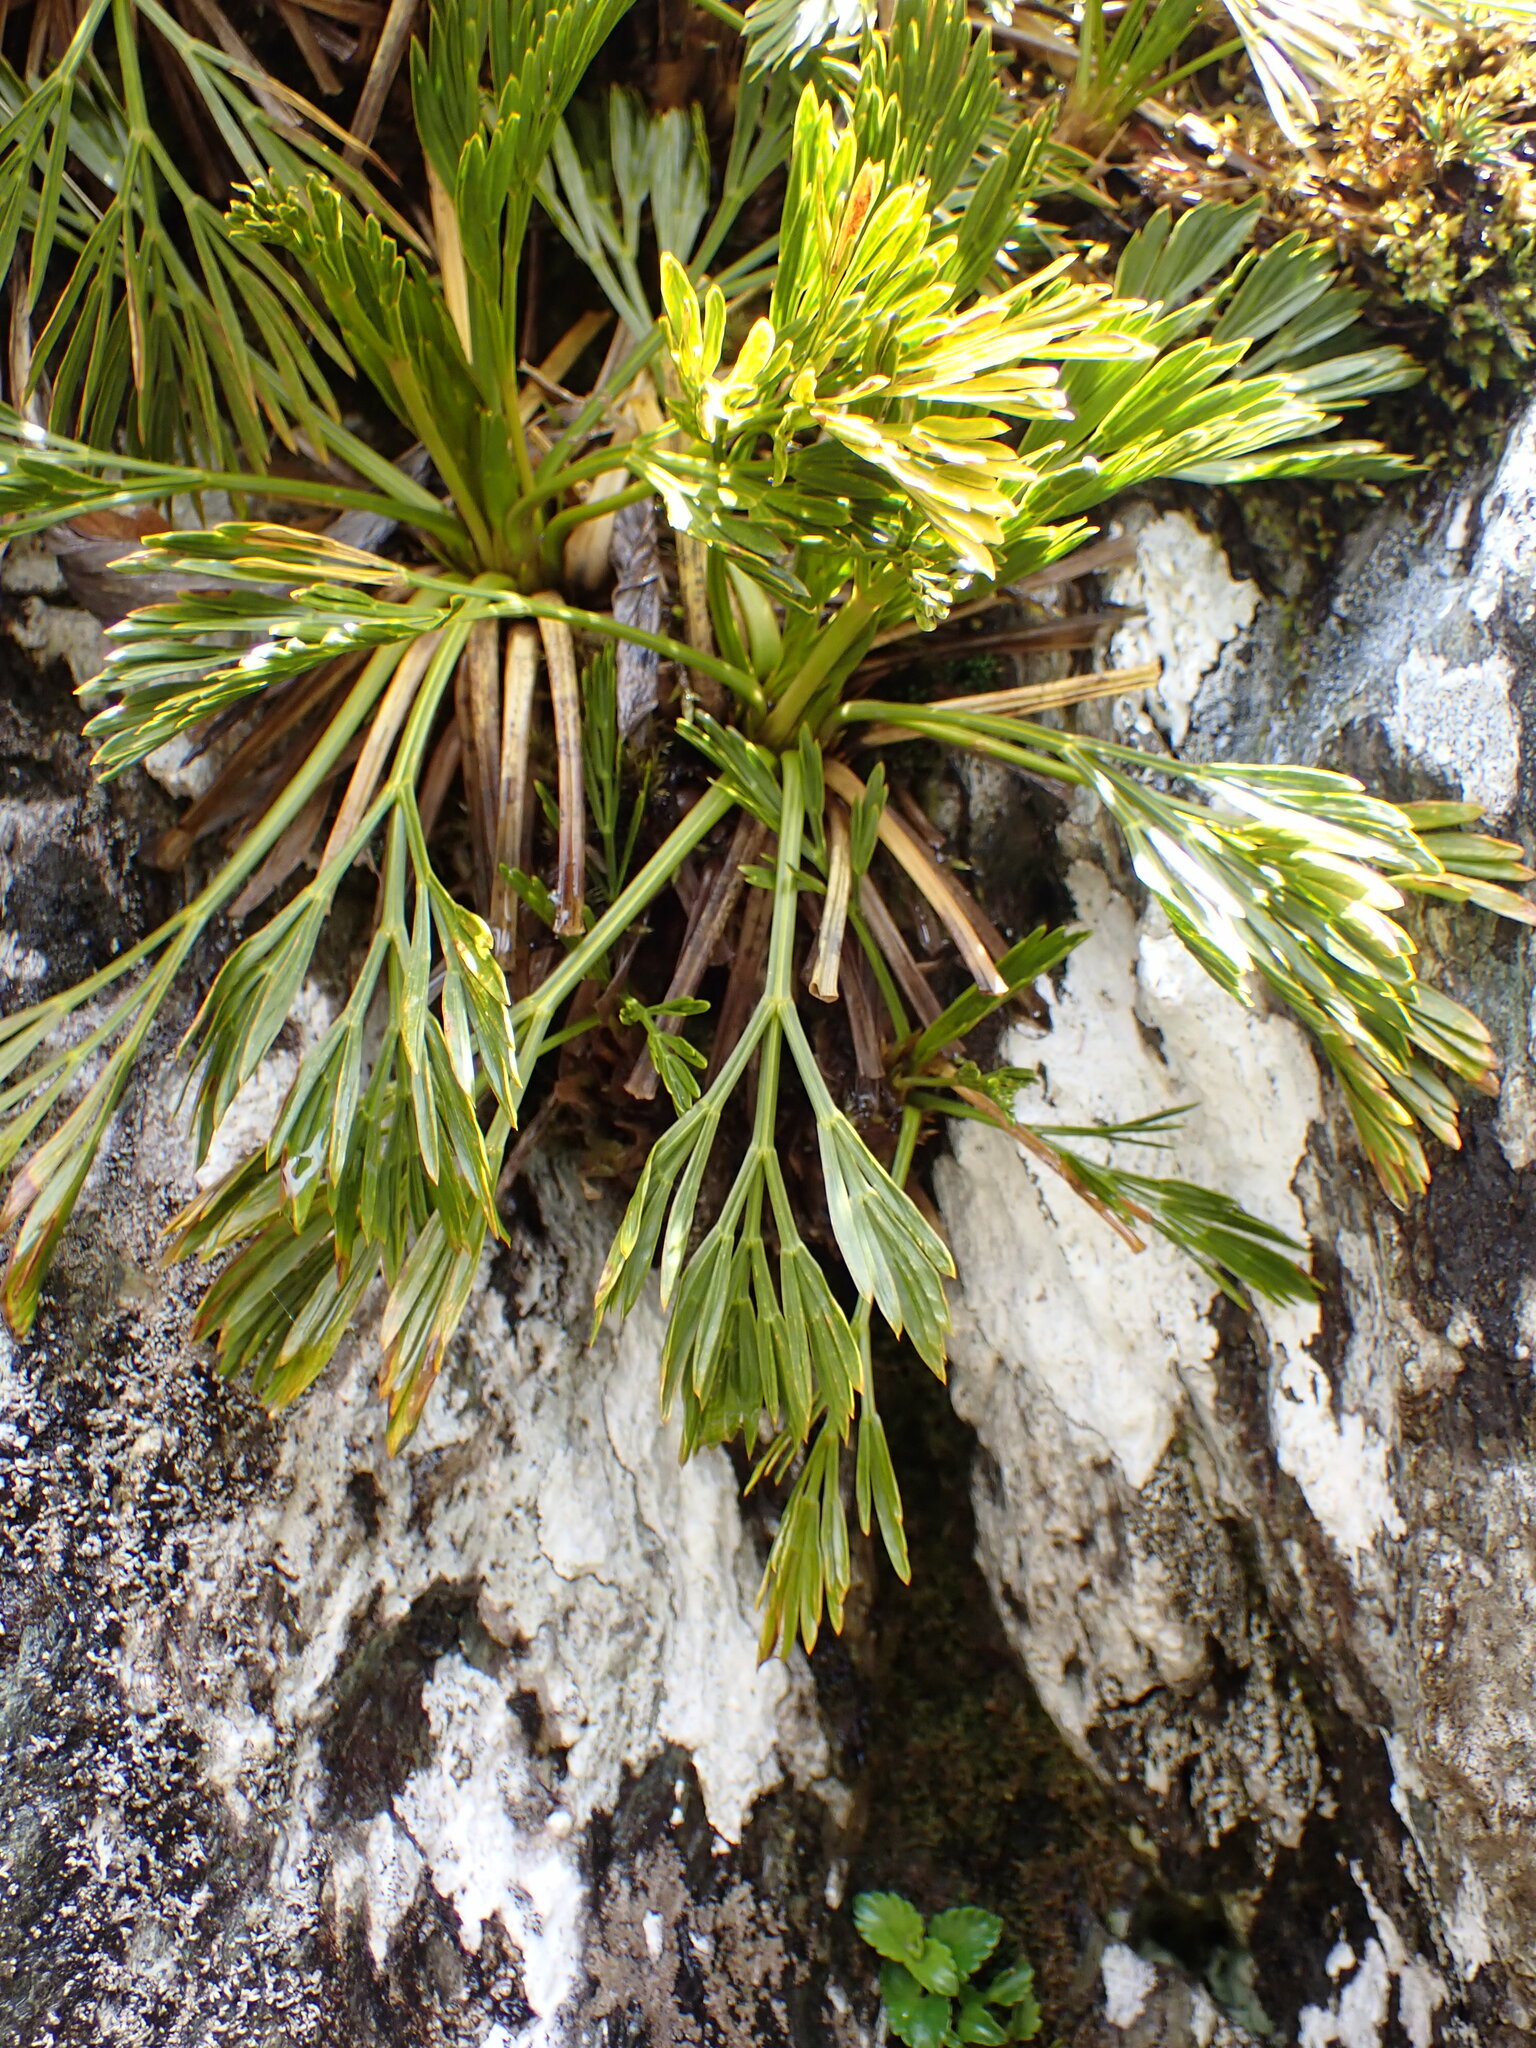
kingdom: Plantae
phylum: Tracheophyta
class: Magnoliopsida
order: Apiales
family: Apiaceae
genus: Aciphylla
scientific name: Aciphylla divisa
